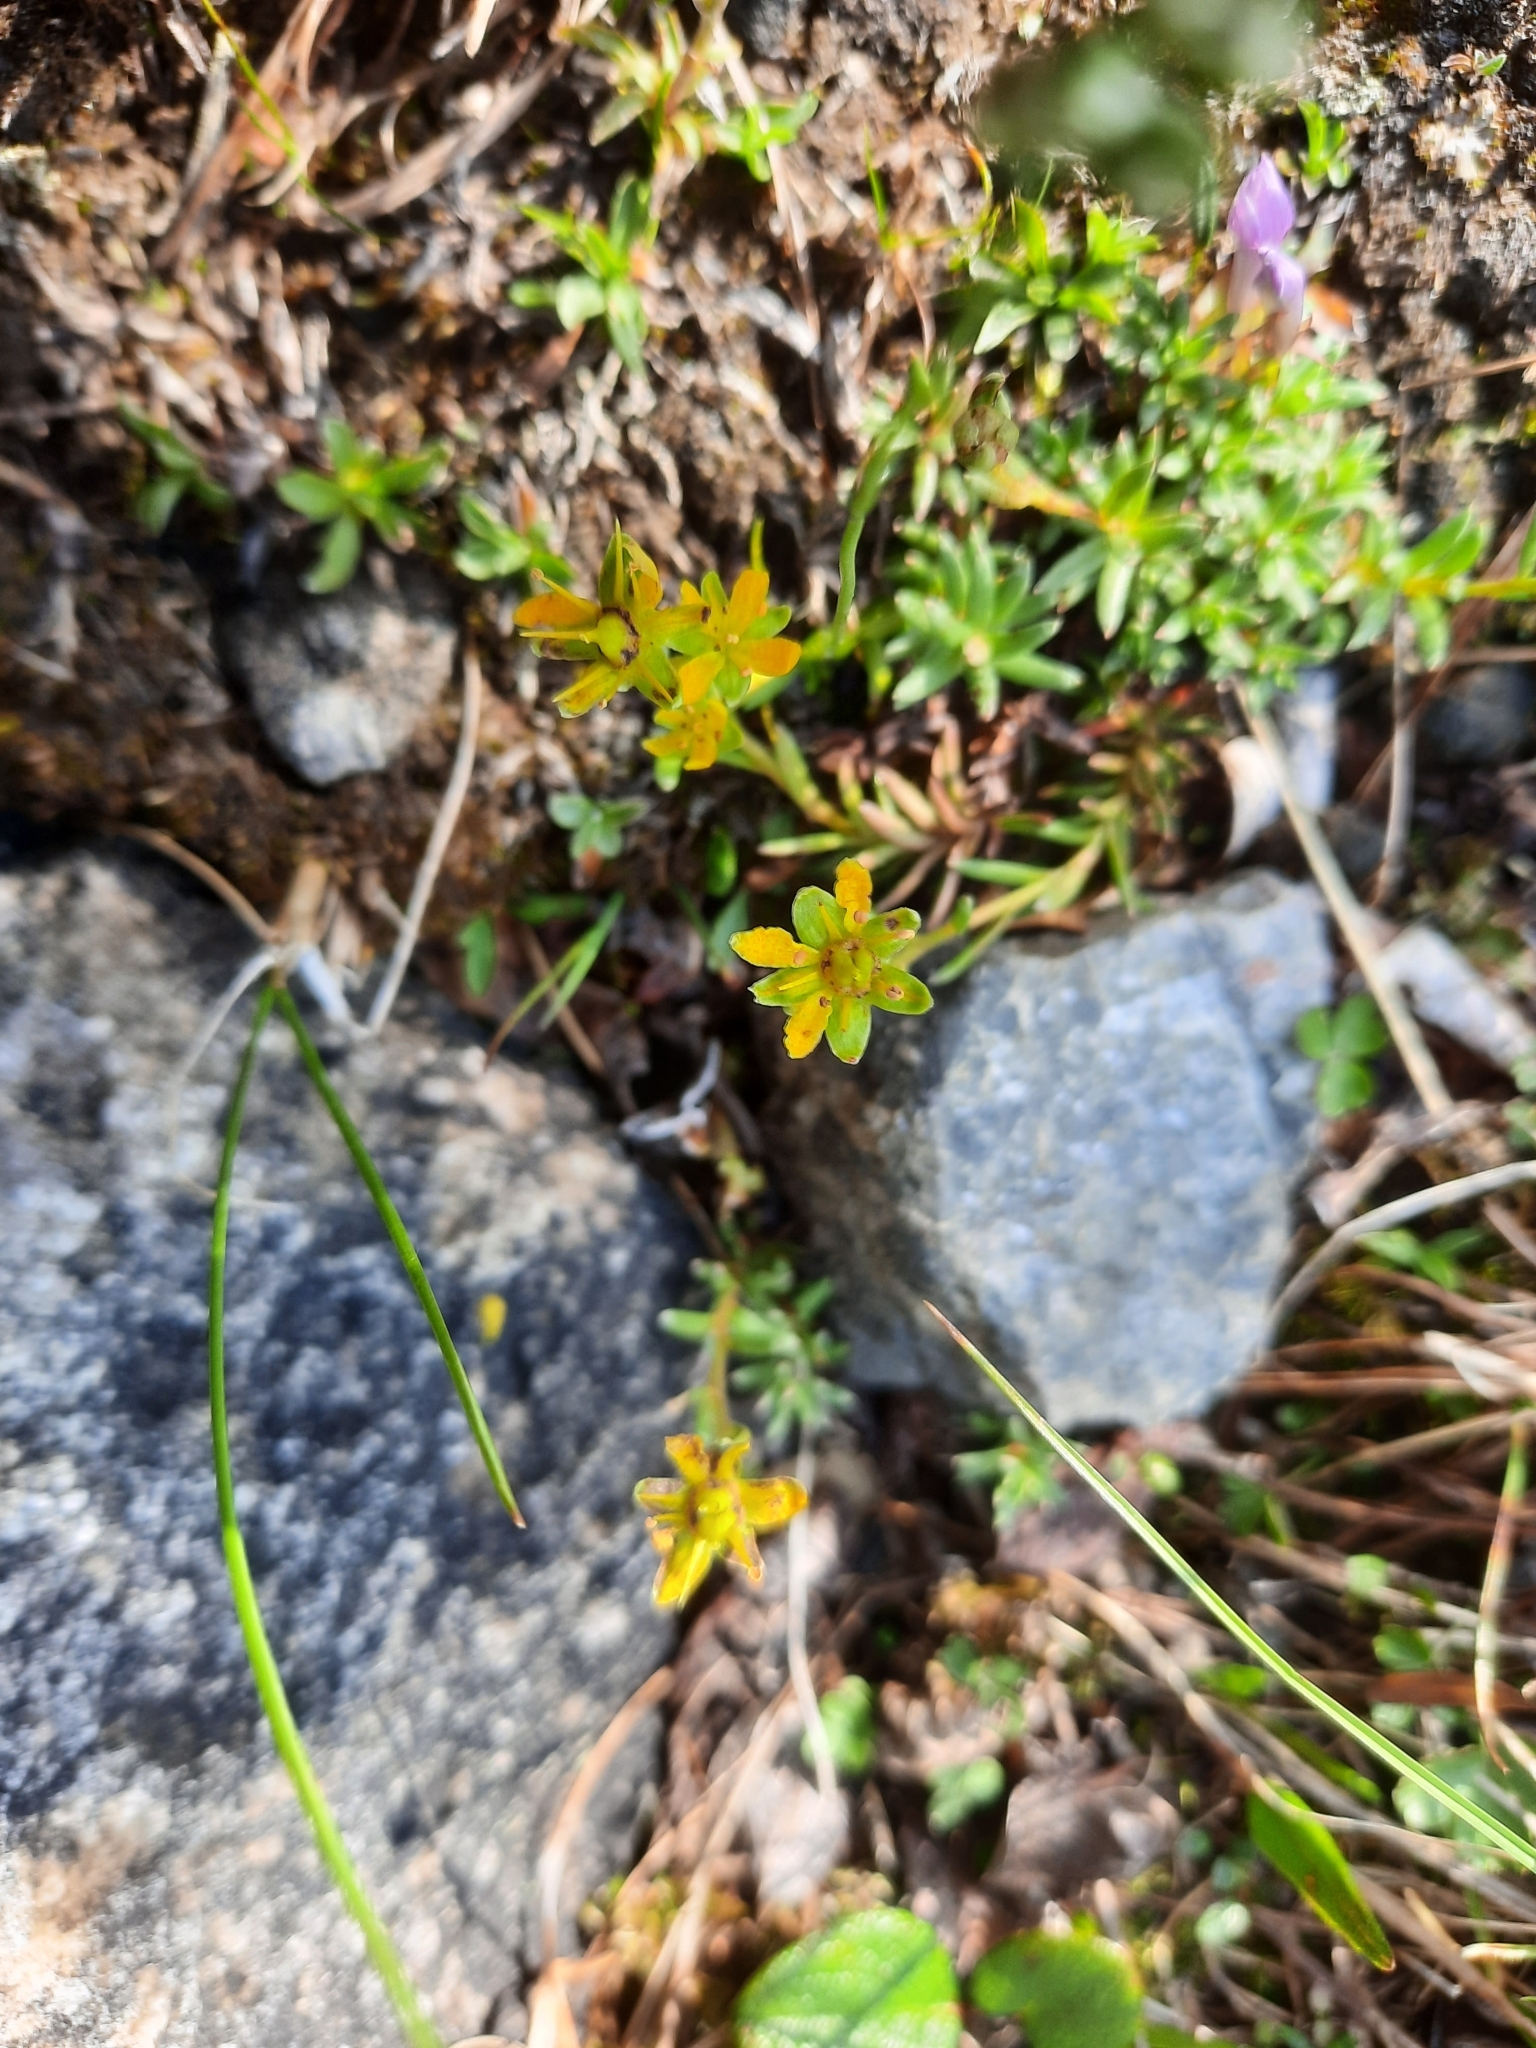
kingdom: Plantae
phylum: Tracheophyta
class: Magnoliopsida
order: Saxifragales
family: Saxifragaceae
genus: Saxifraga
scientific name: Saxifraga aizoides
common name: Yellow mountain saxifrage
